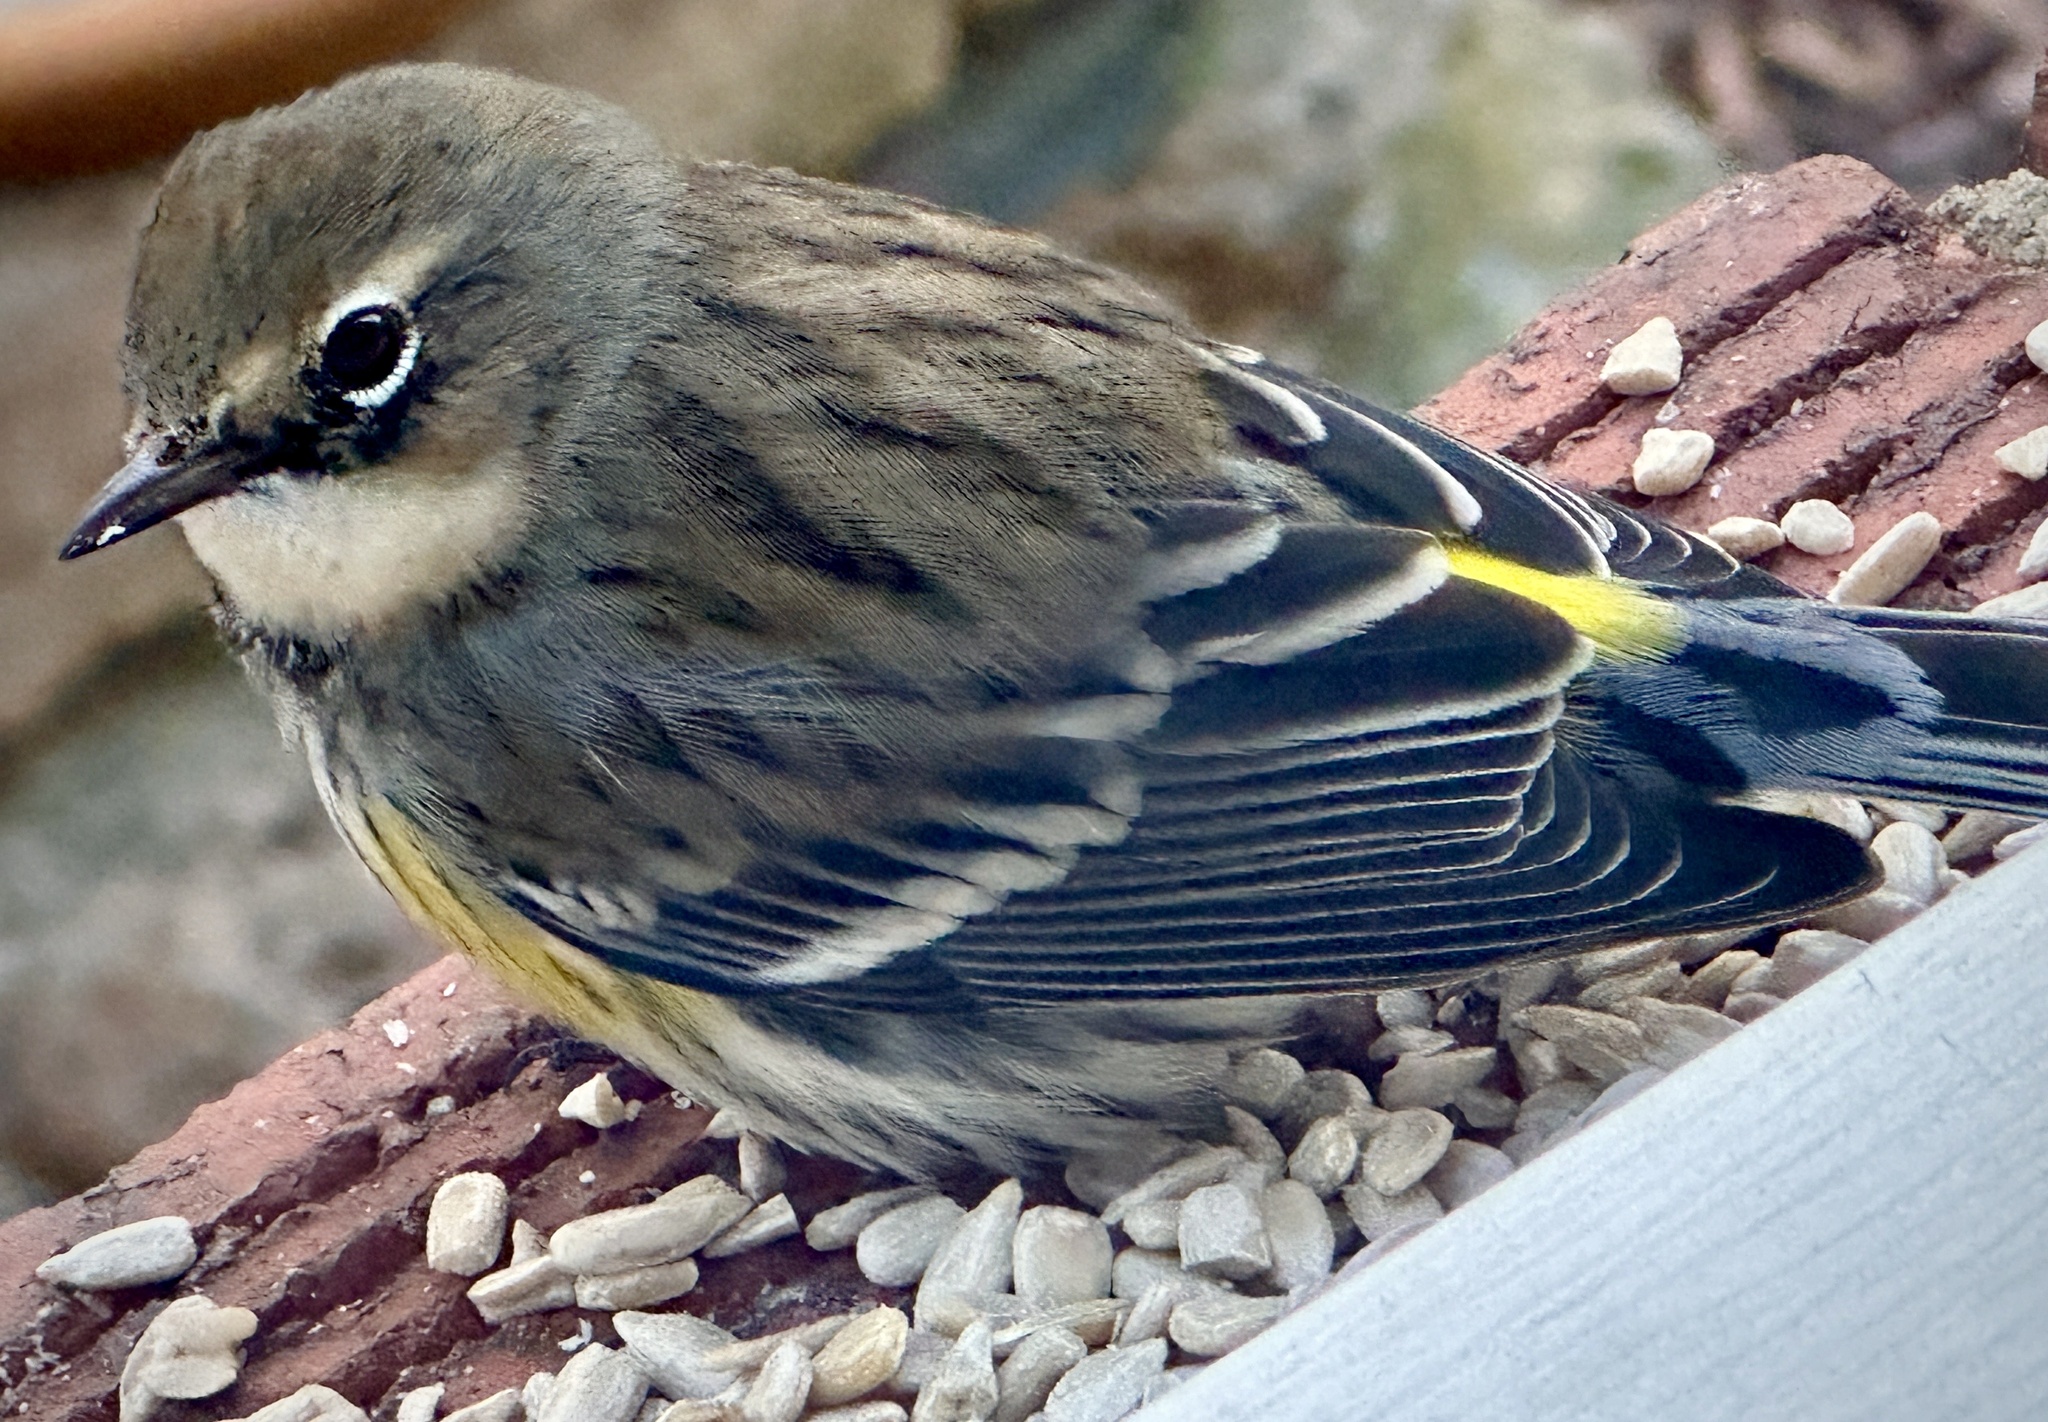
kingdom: Animalia
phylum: Chordata
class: Aves
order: Passeriformes
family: Parulidae
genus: Setophaga
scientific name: Setophaga coronata
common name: Myrtle warbler
